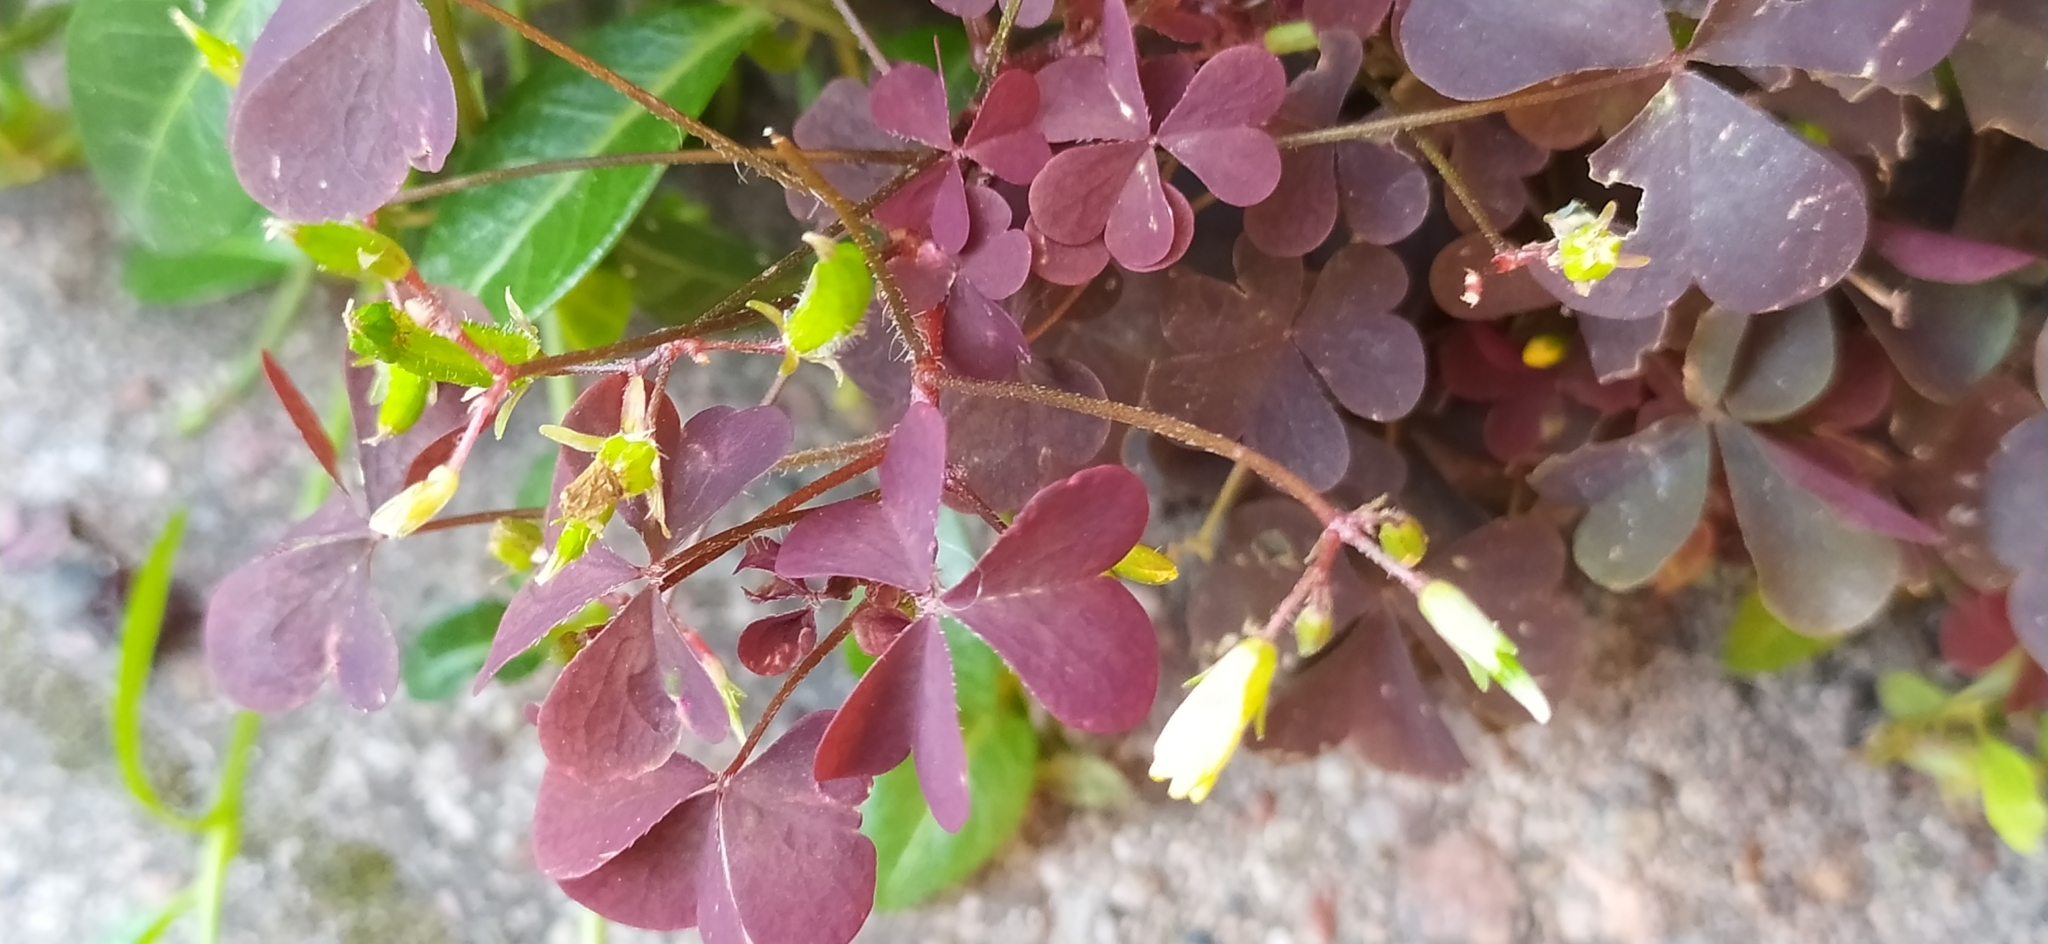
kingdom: Plantae
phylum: Tracheophyta
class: Magnoliopsida
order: Oxalidales
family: Oxalidaceae
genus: Oxalis
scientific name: Oxalis stricta
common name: Upright yellow-sorrel
